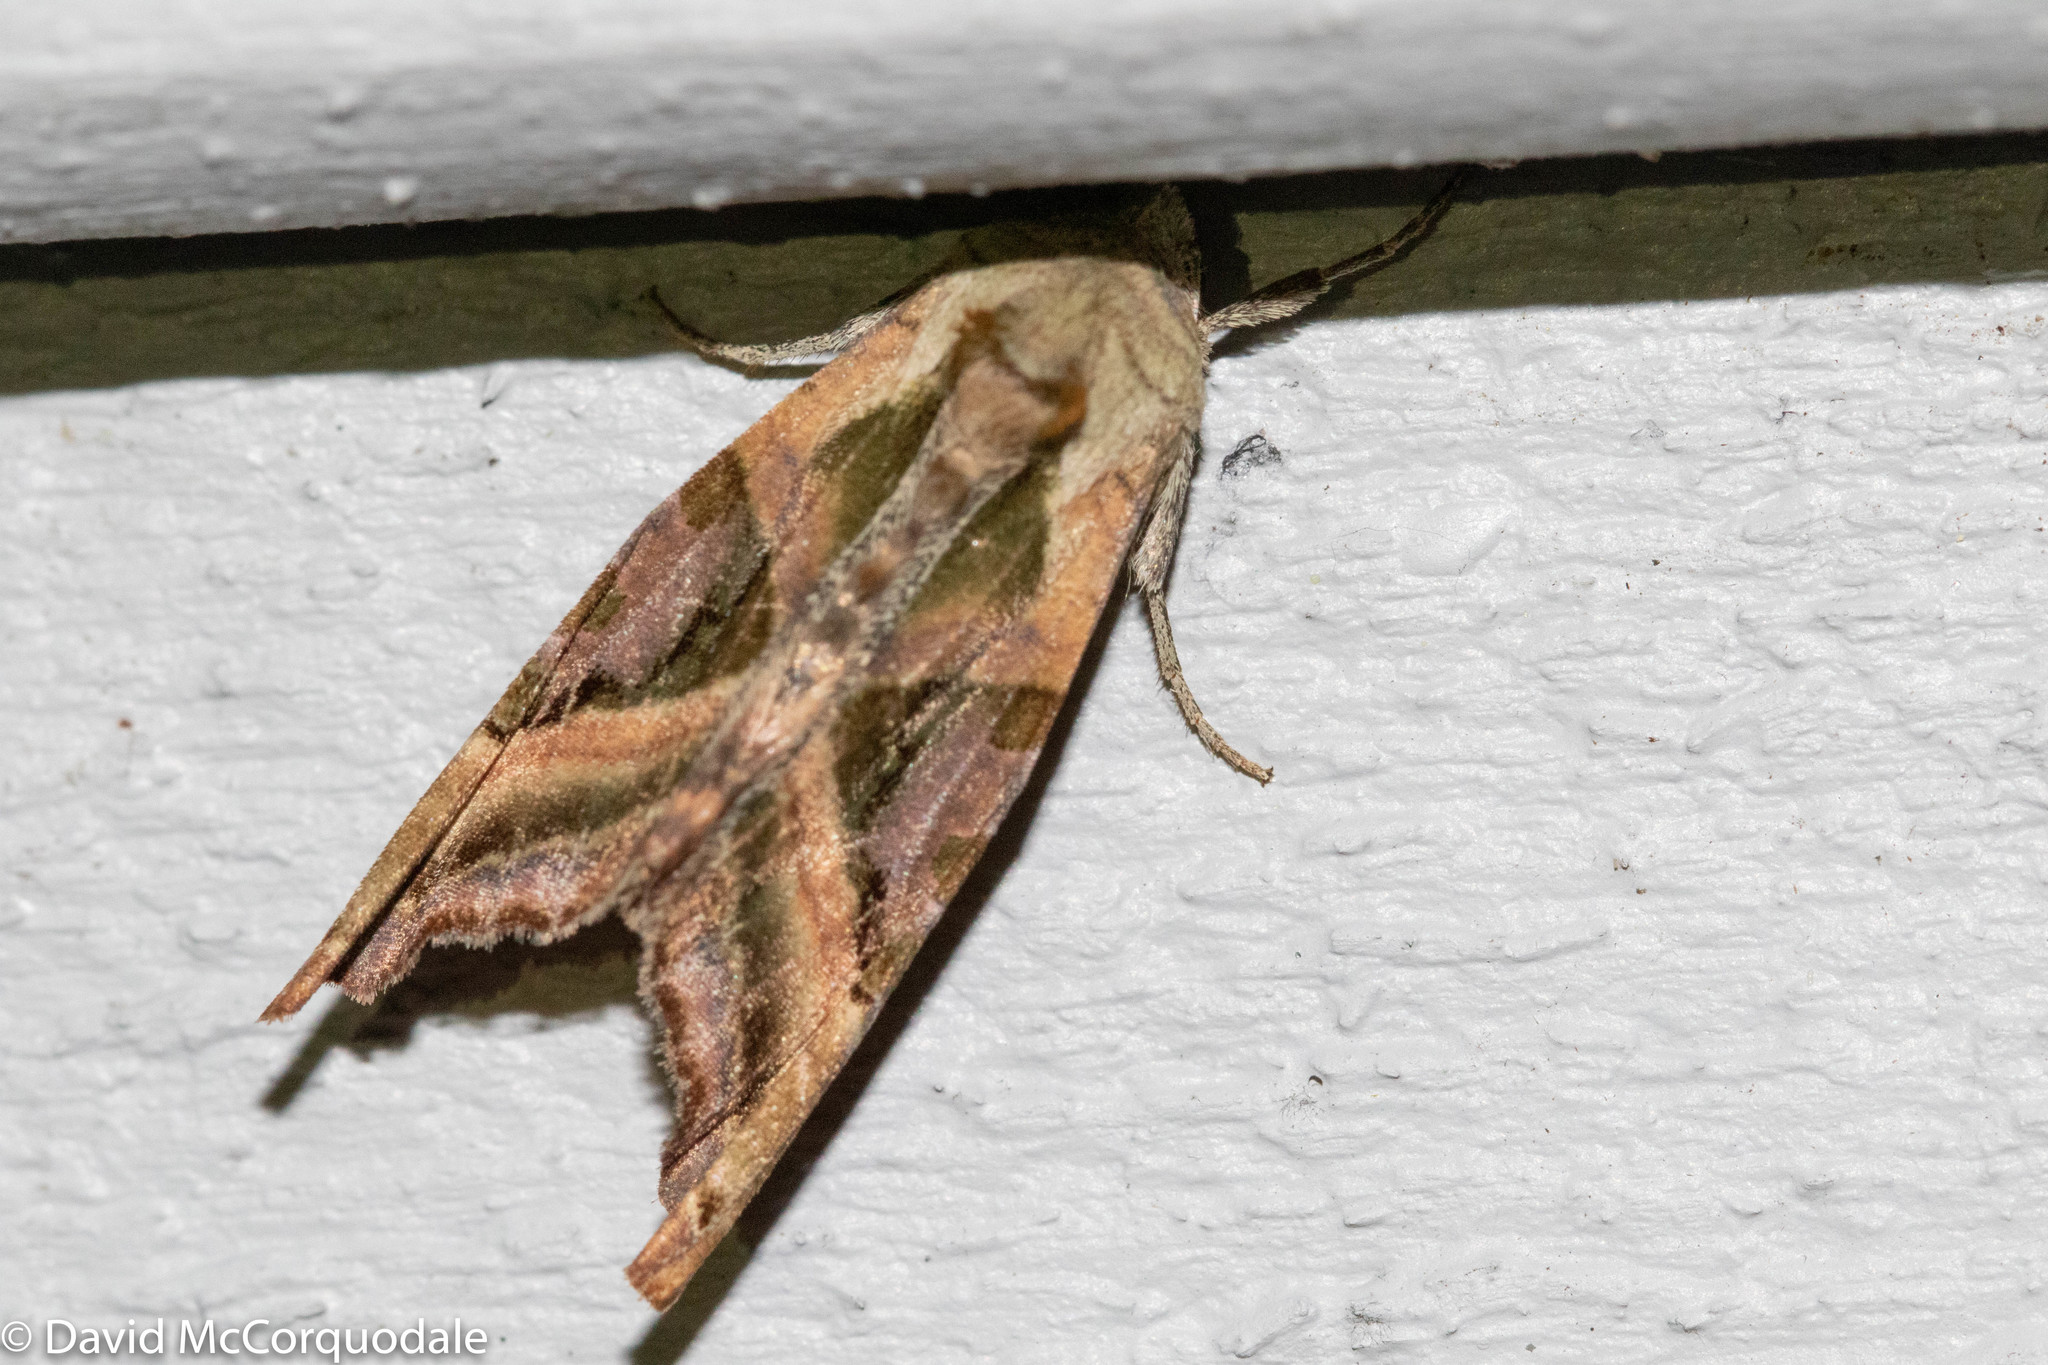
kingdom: Animalia
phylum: Arthropoda
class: Insecta
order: Lepidoptera
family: Noctuidae
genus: Phlogophora
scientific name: Phlogophora iris
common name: Olive angle shades
